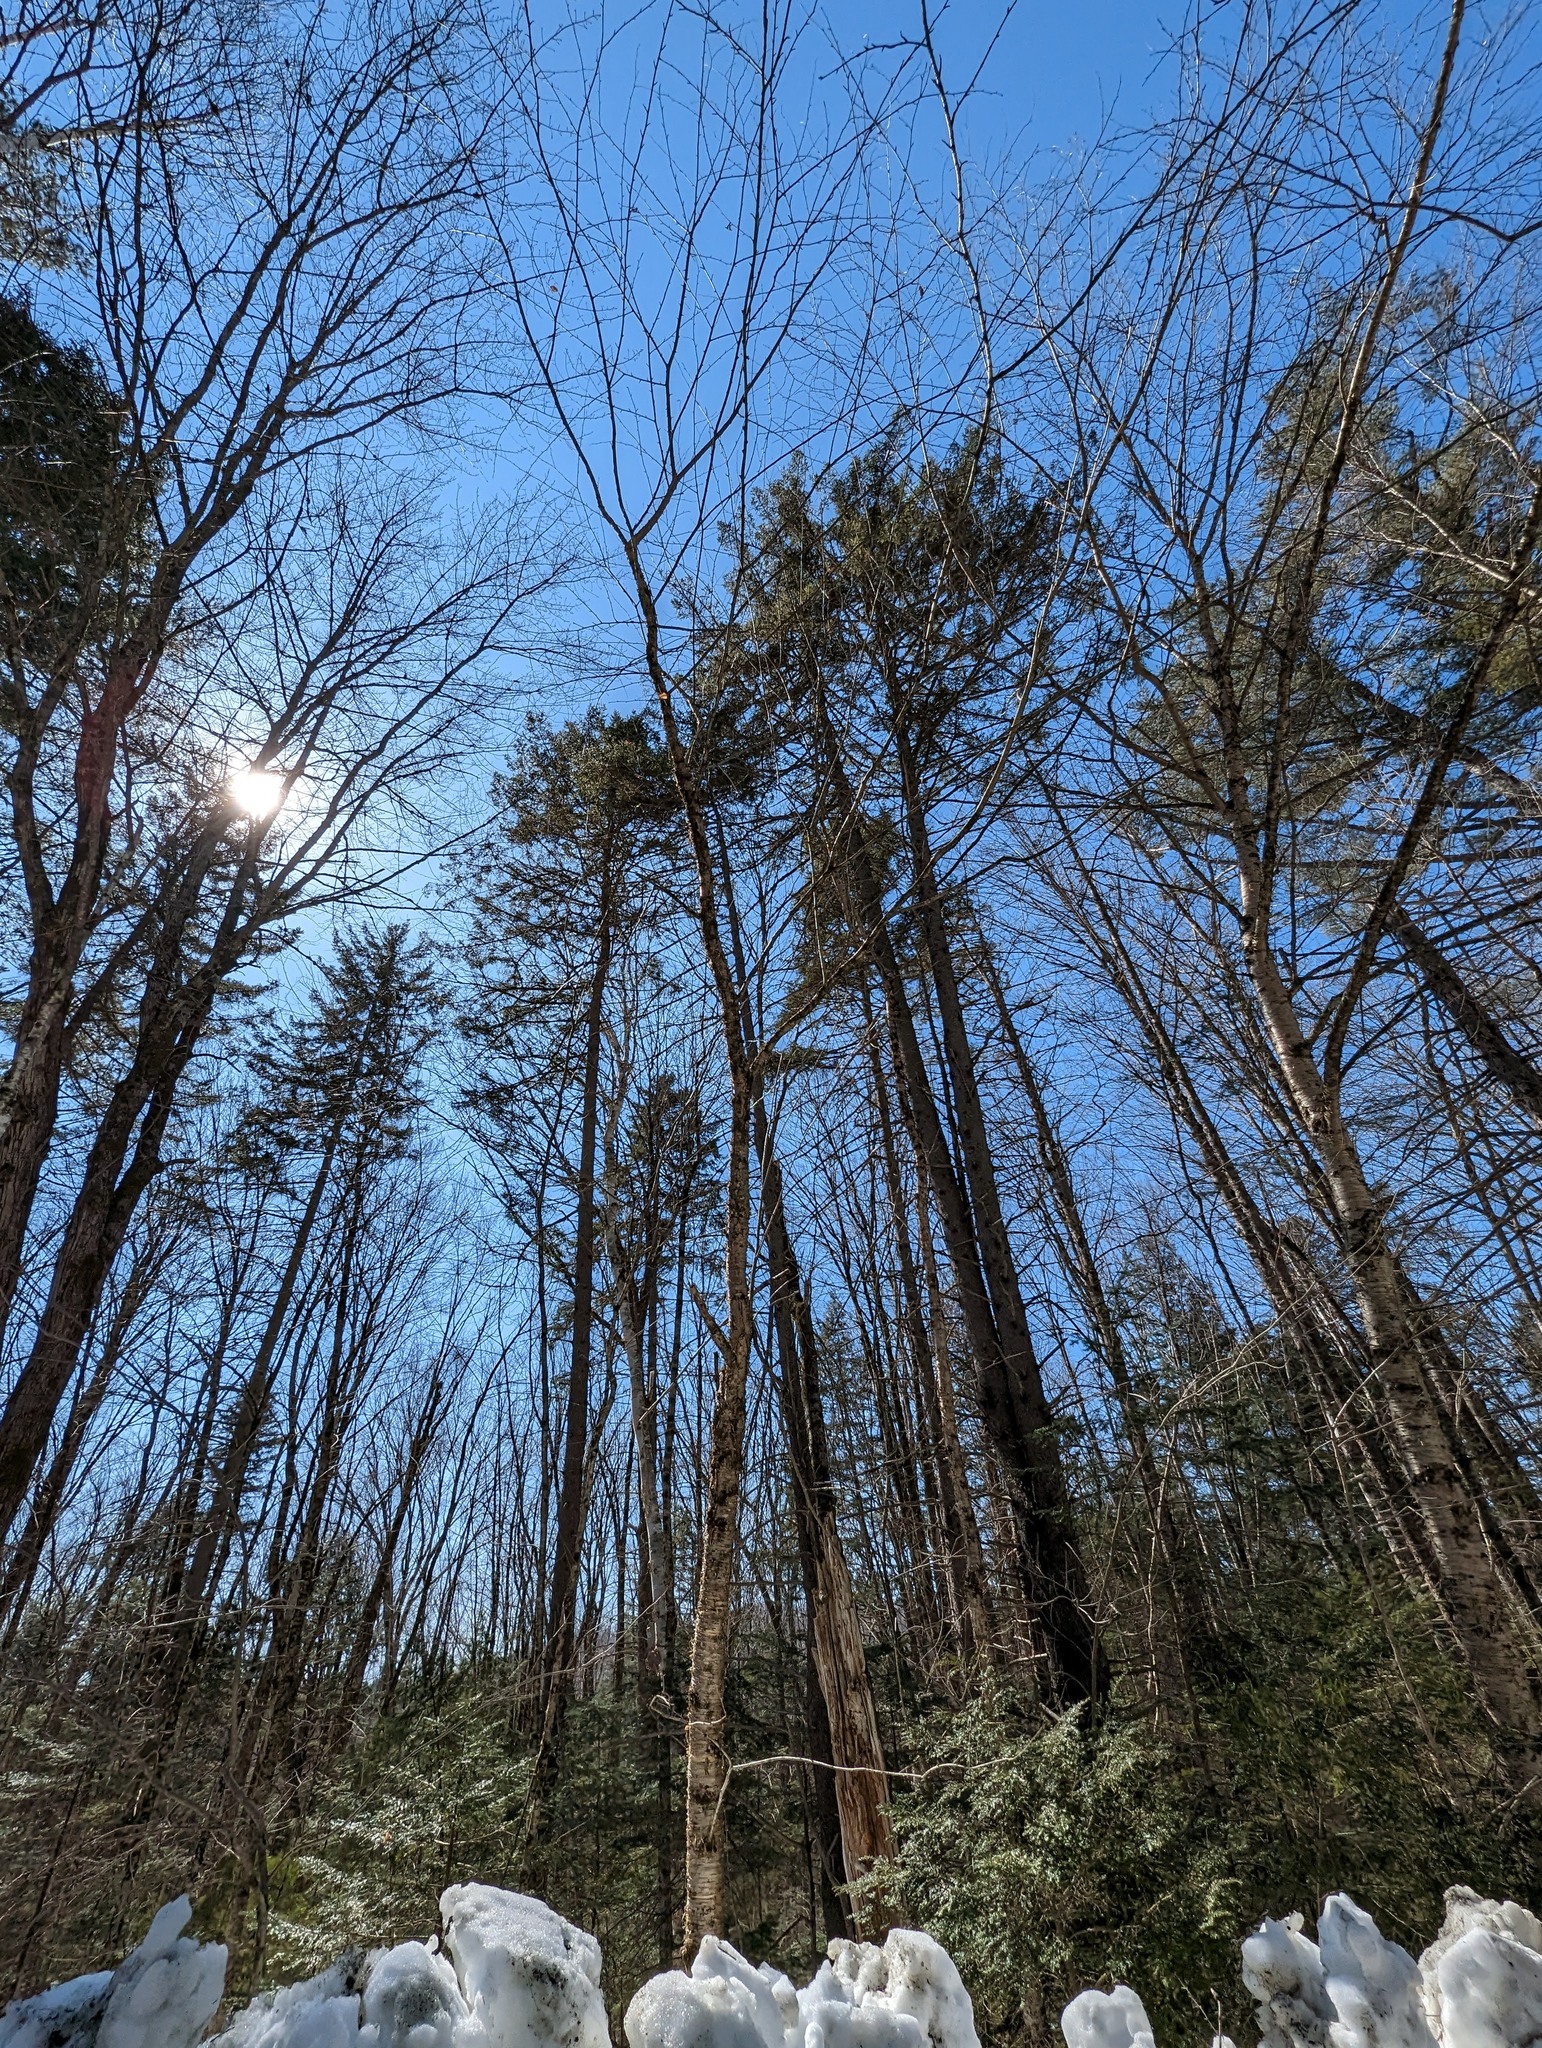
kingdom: Plantae
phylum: Tracheophyta
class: Magnoliopsida
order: Fagales
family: Betulaceae
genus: Betula
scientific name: Betula alleghaniensis
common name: Yellow birch
